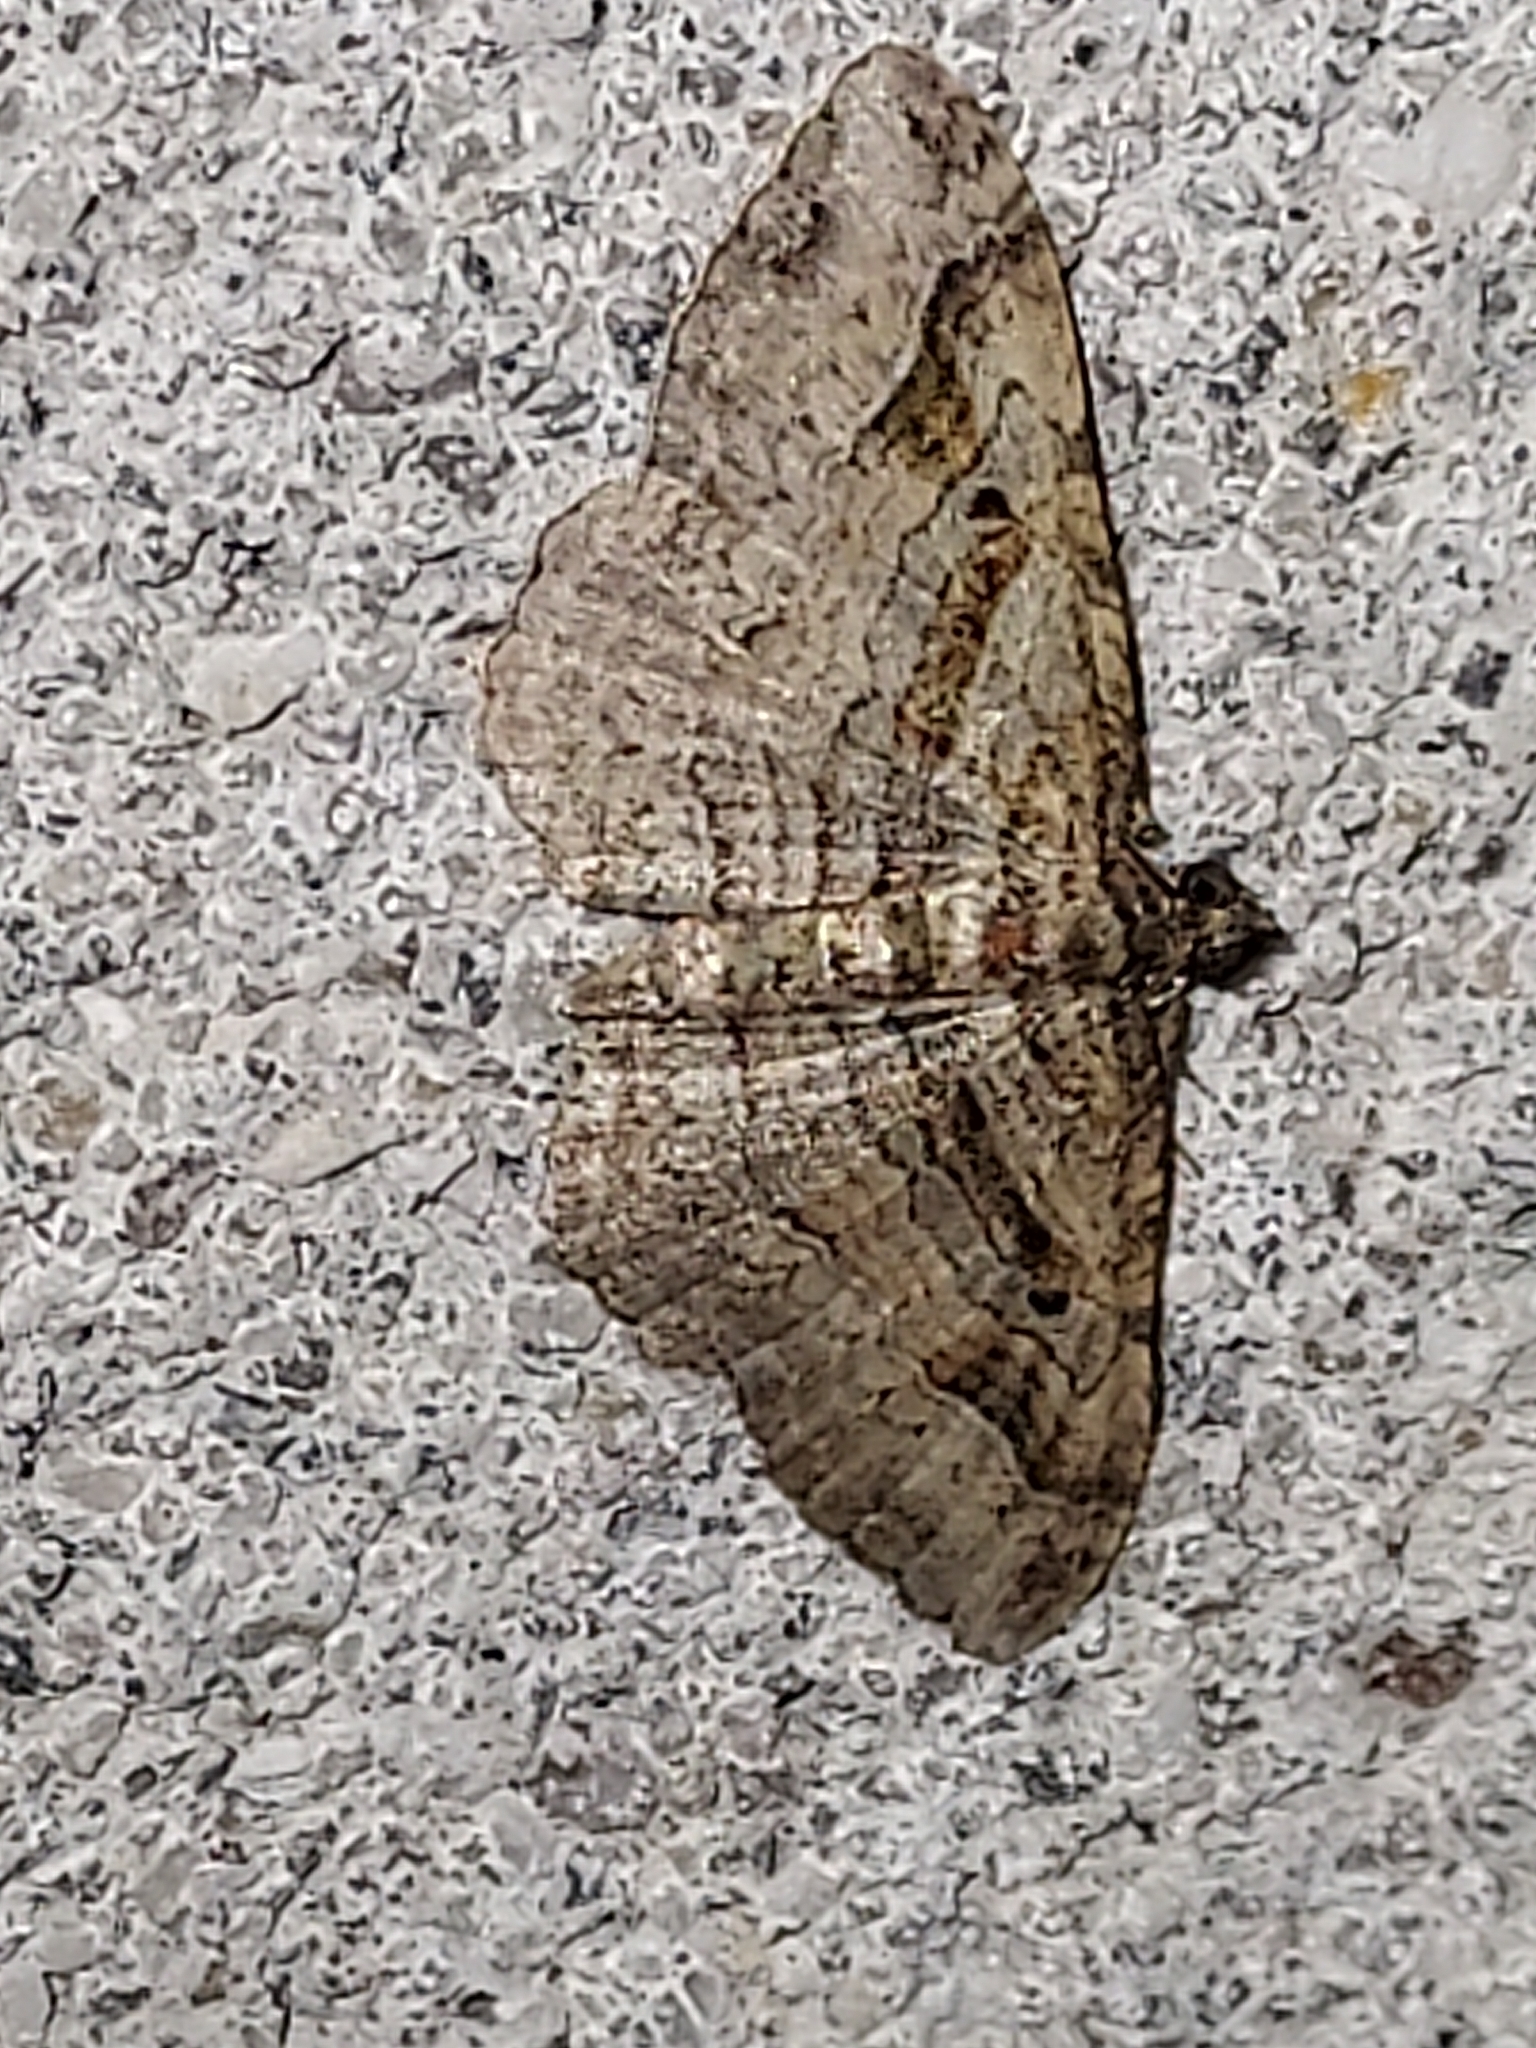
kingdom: Animalia
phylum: Arthropoda
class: Insecta
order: Lepidoptera
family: Geometridae
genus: Costaconvexa
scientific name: Costaconvexa centrostrigaria
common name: Bent-line carpet
